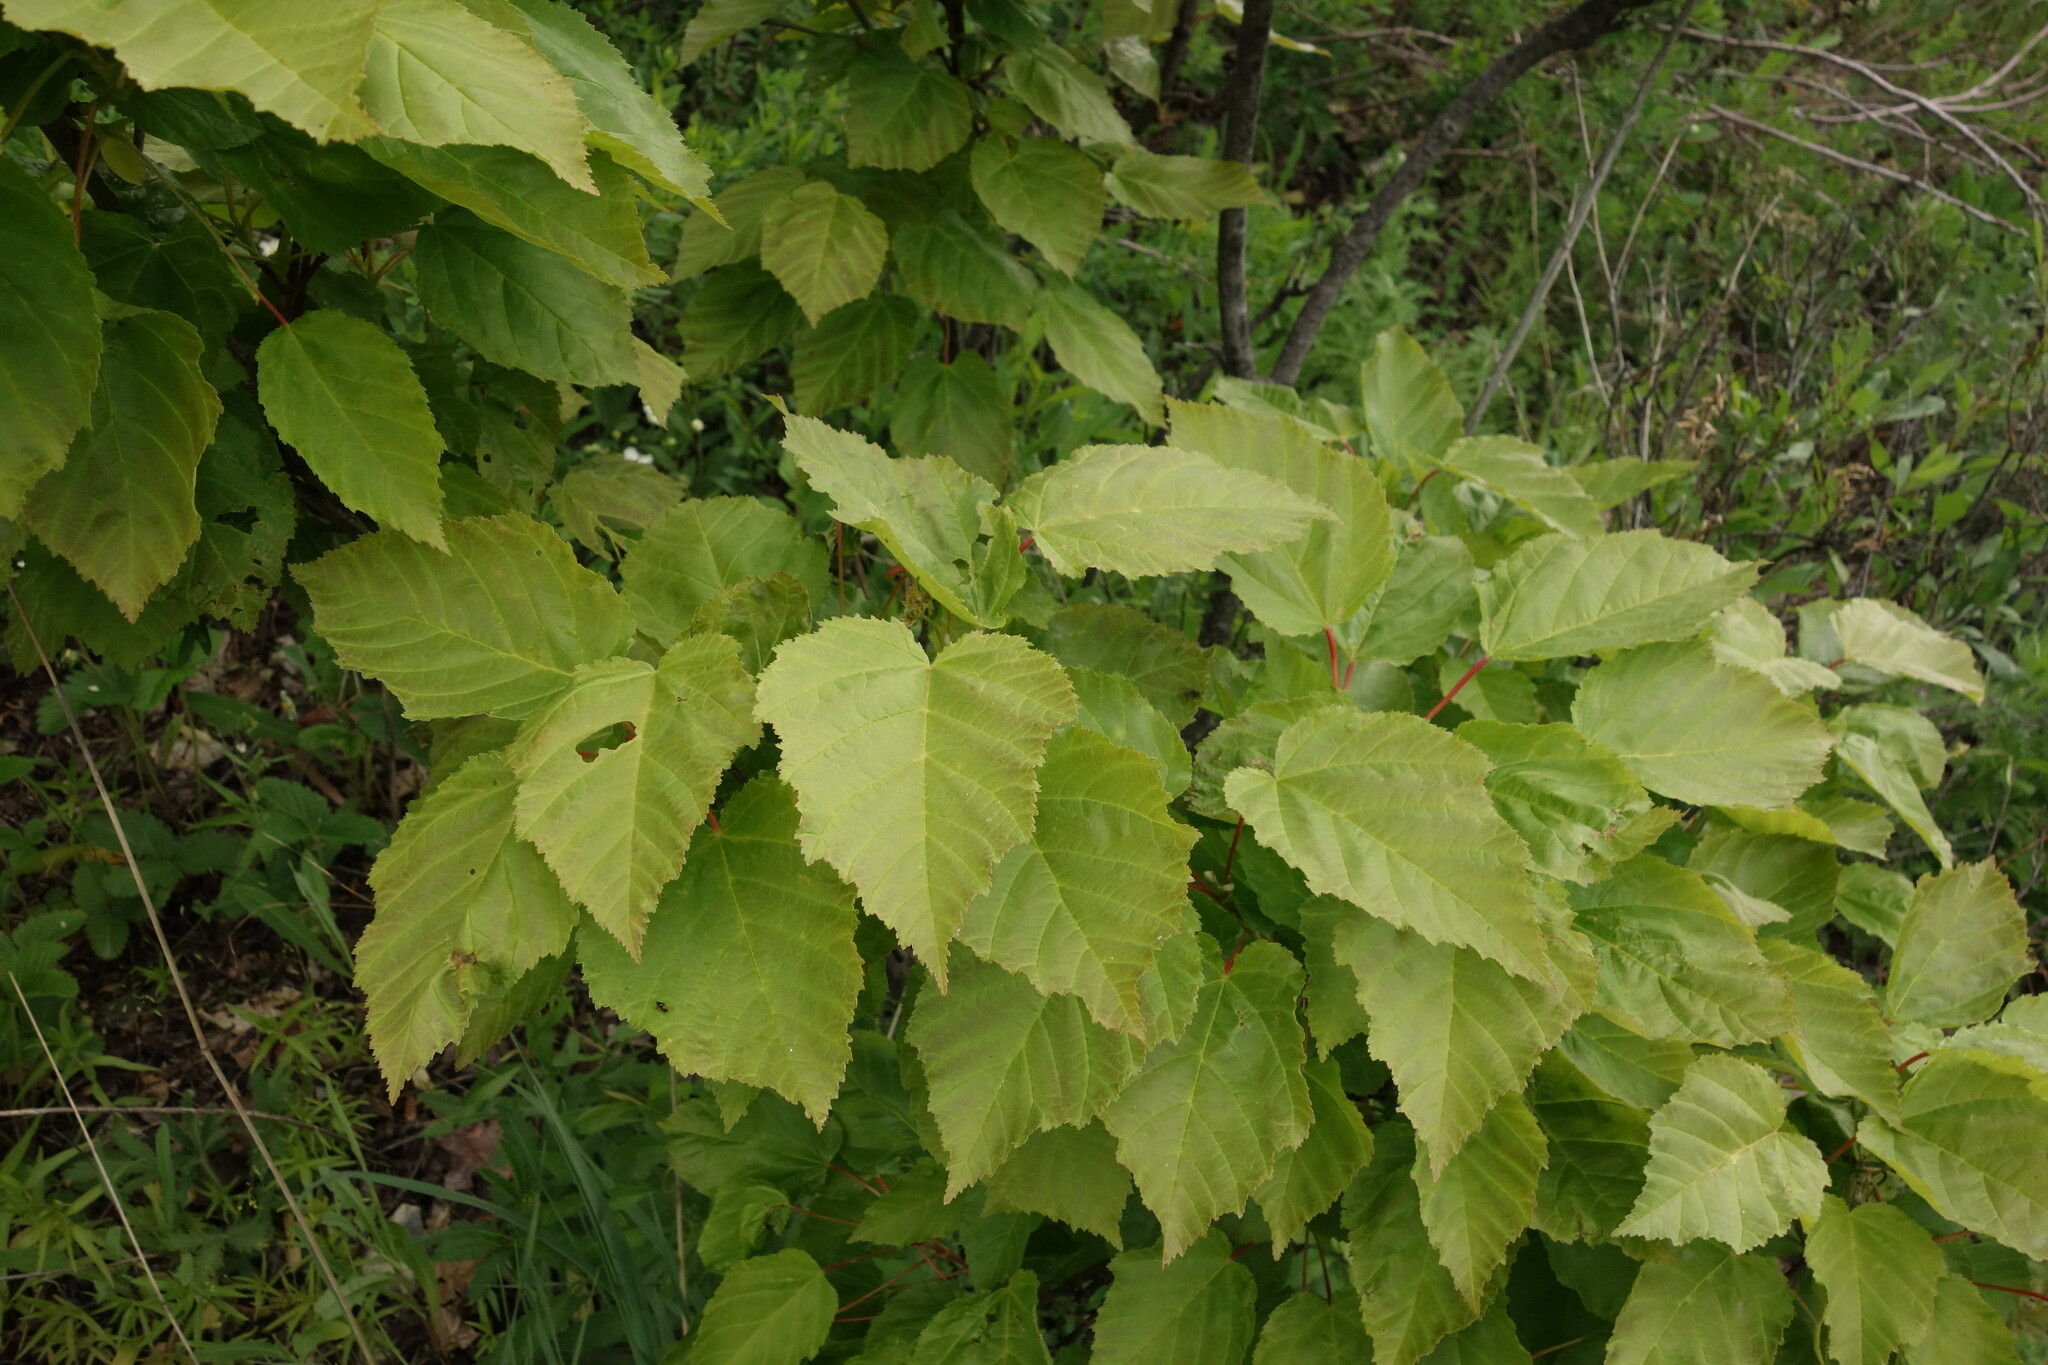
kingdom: Plantae
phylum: Tracheophyta
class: Magnoliopsida
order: Sapindales
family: Sapindaceae
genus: Acer
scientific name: Acer tataricum
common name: Tartar maple
